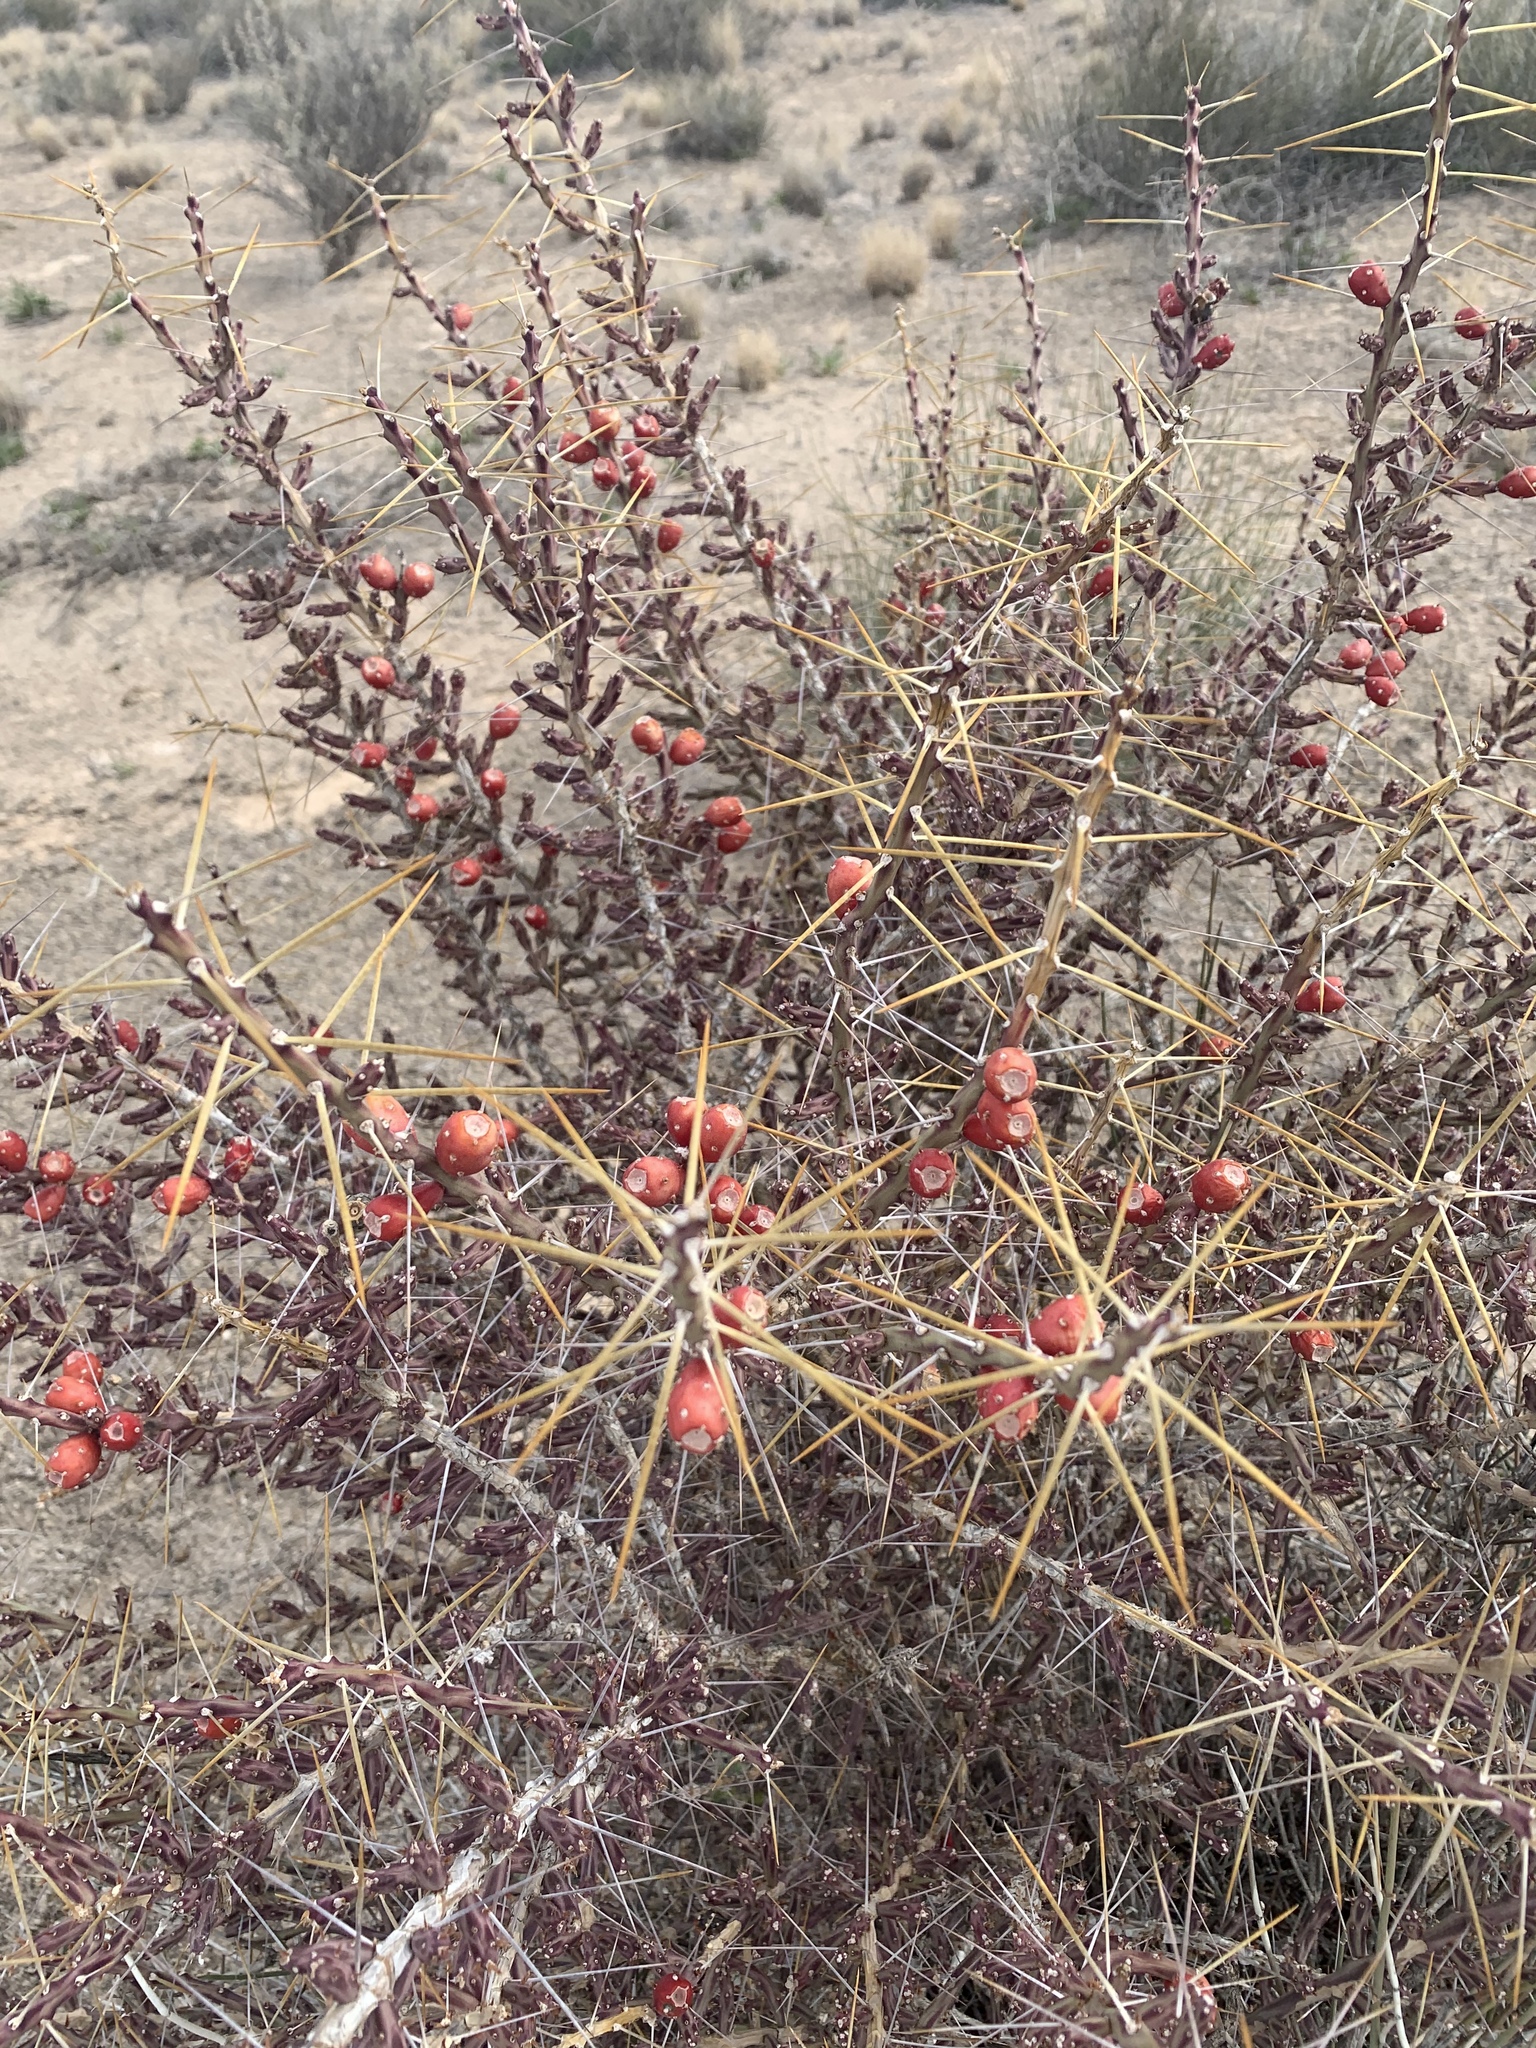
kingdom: Plantae
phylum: Tracheophyta
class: Magnoliopsida
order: Caryophyllales
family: Cactaceae
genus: Cylindropuntia
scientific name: Cylindropuntia leptocaulis
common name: Christmas cactus
